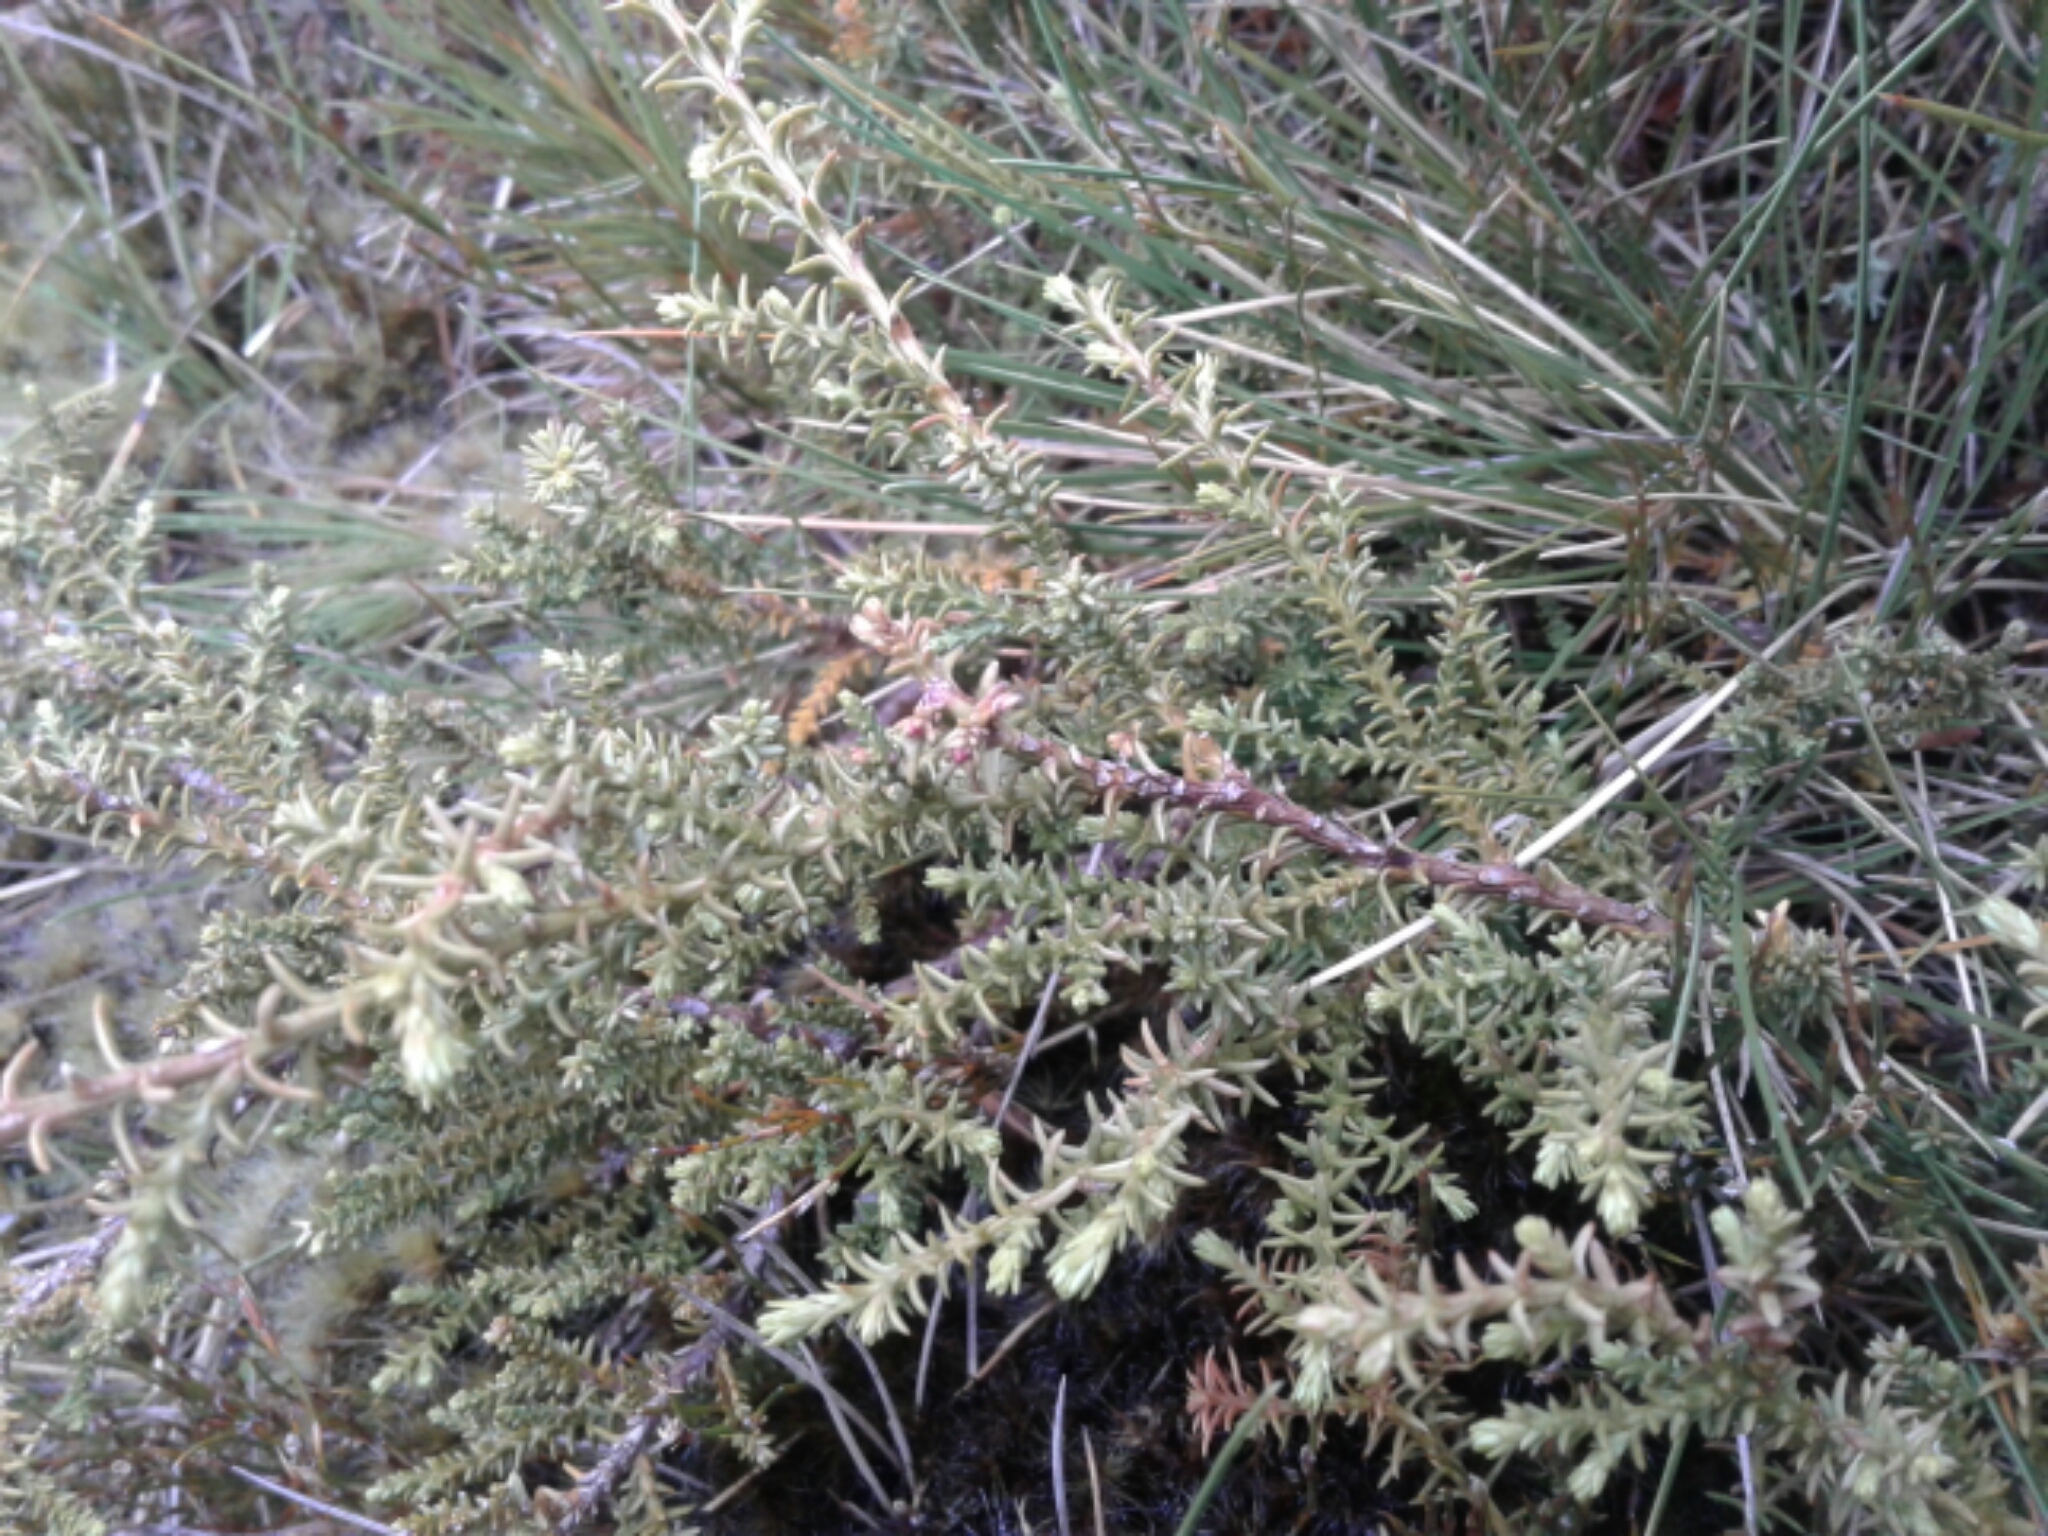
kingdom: Plantae
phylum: Tracheophyta
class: Pinopsida
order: Pinales
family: Podocarpaceae
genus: Lepidothamnus
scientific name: Lepidothamnus laxifolius
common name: Pygmy pine
